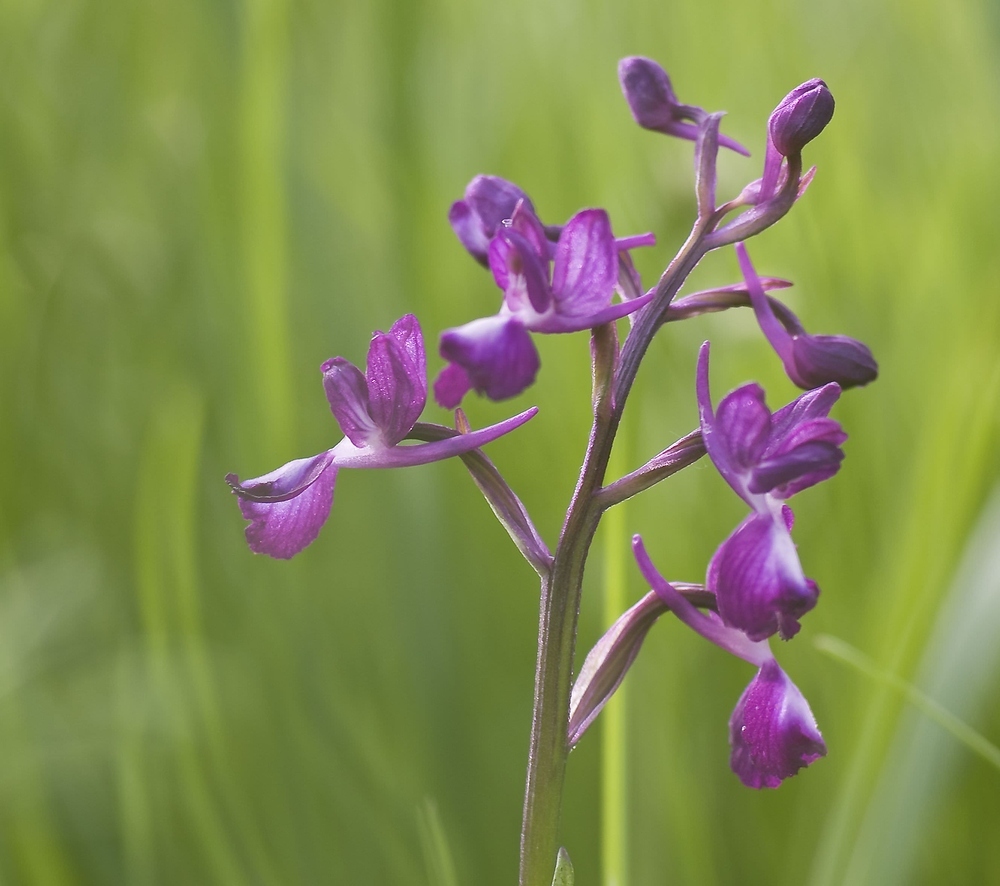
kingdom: Plantae
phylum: Tracheophyta
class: Liliopsida
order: Asparagales
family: Orchidaceae
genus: Anacamptis
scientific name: Anacamptis laxiflora
